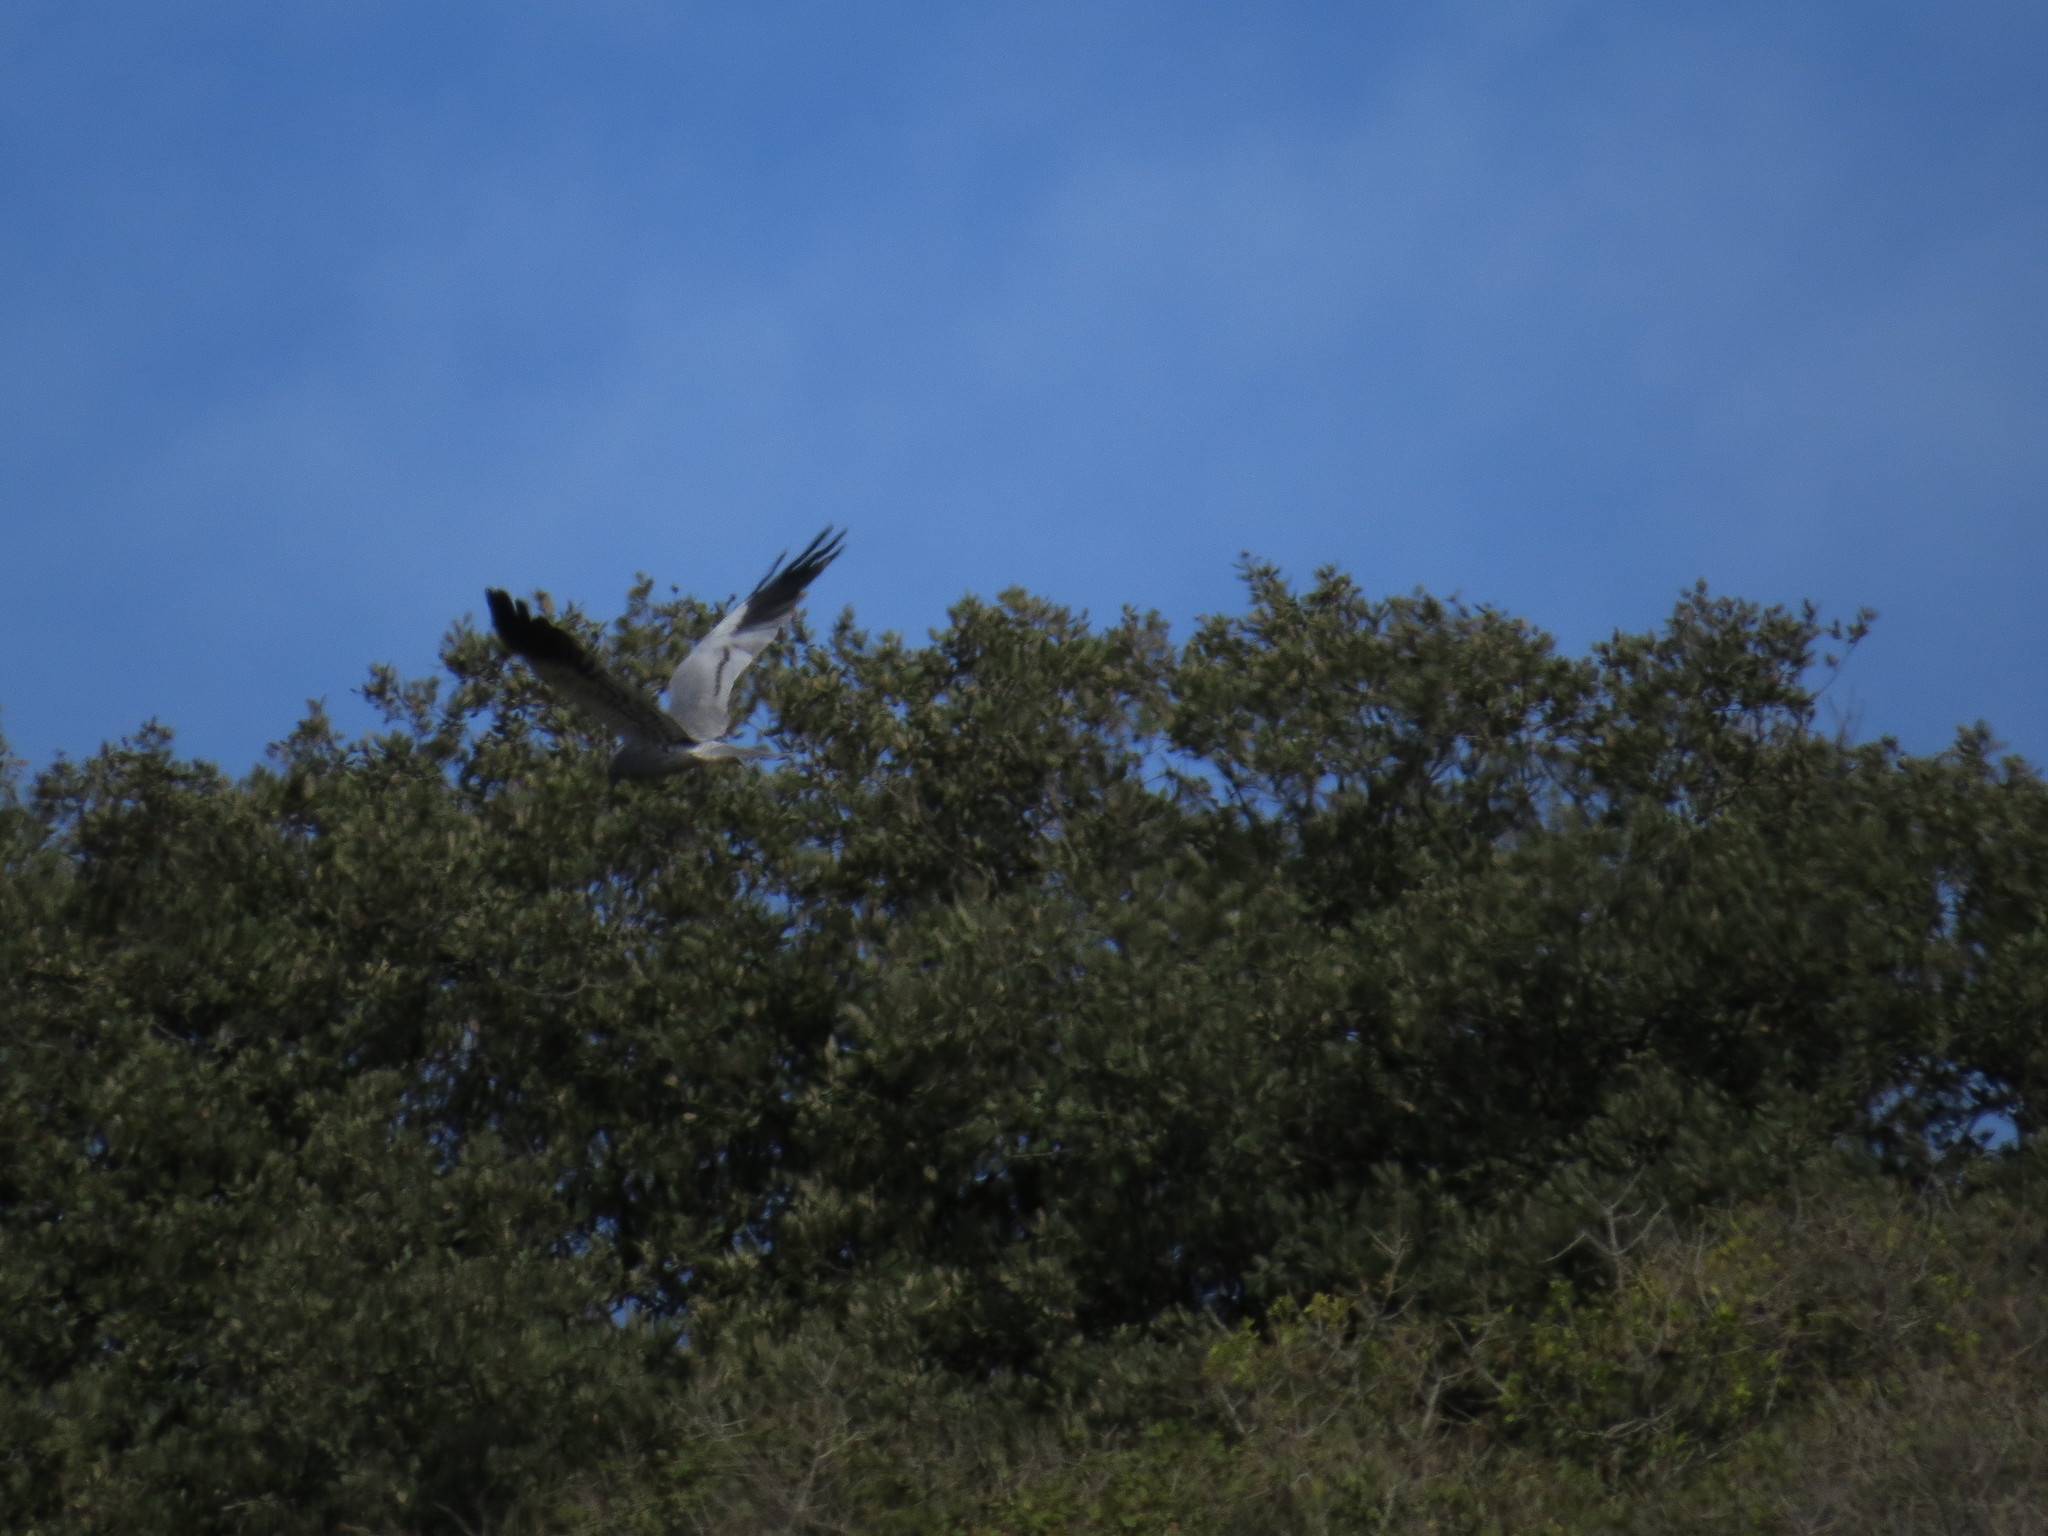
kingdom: Animalia
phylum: Chordata
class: Aves
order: Accipitriformes
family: Accipitridae
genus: Circus
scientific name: Circus pygargus
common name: Montagu's harrier
